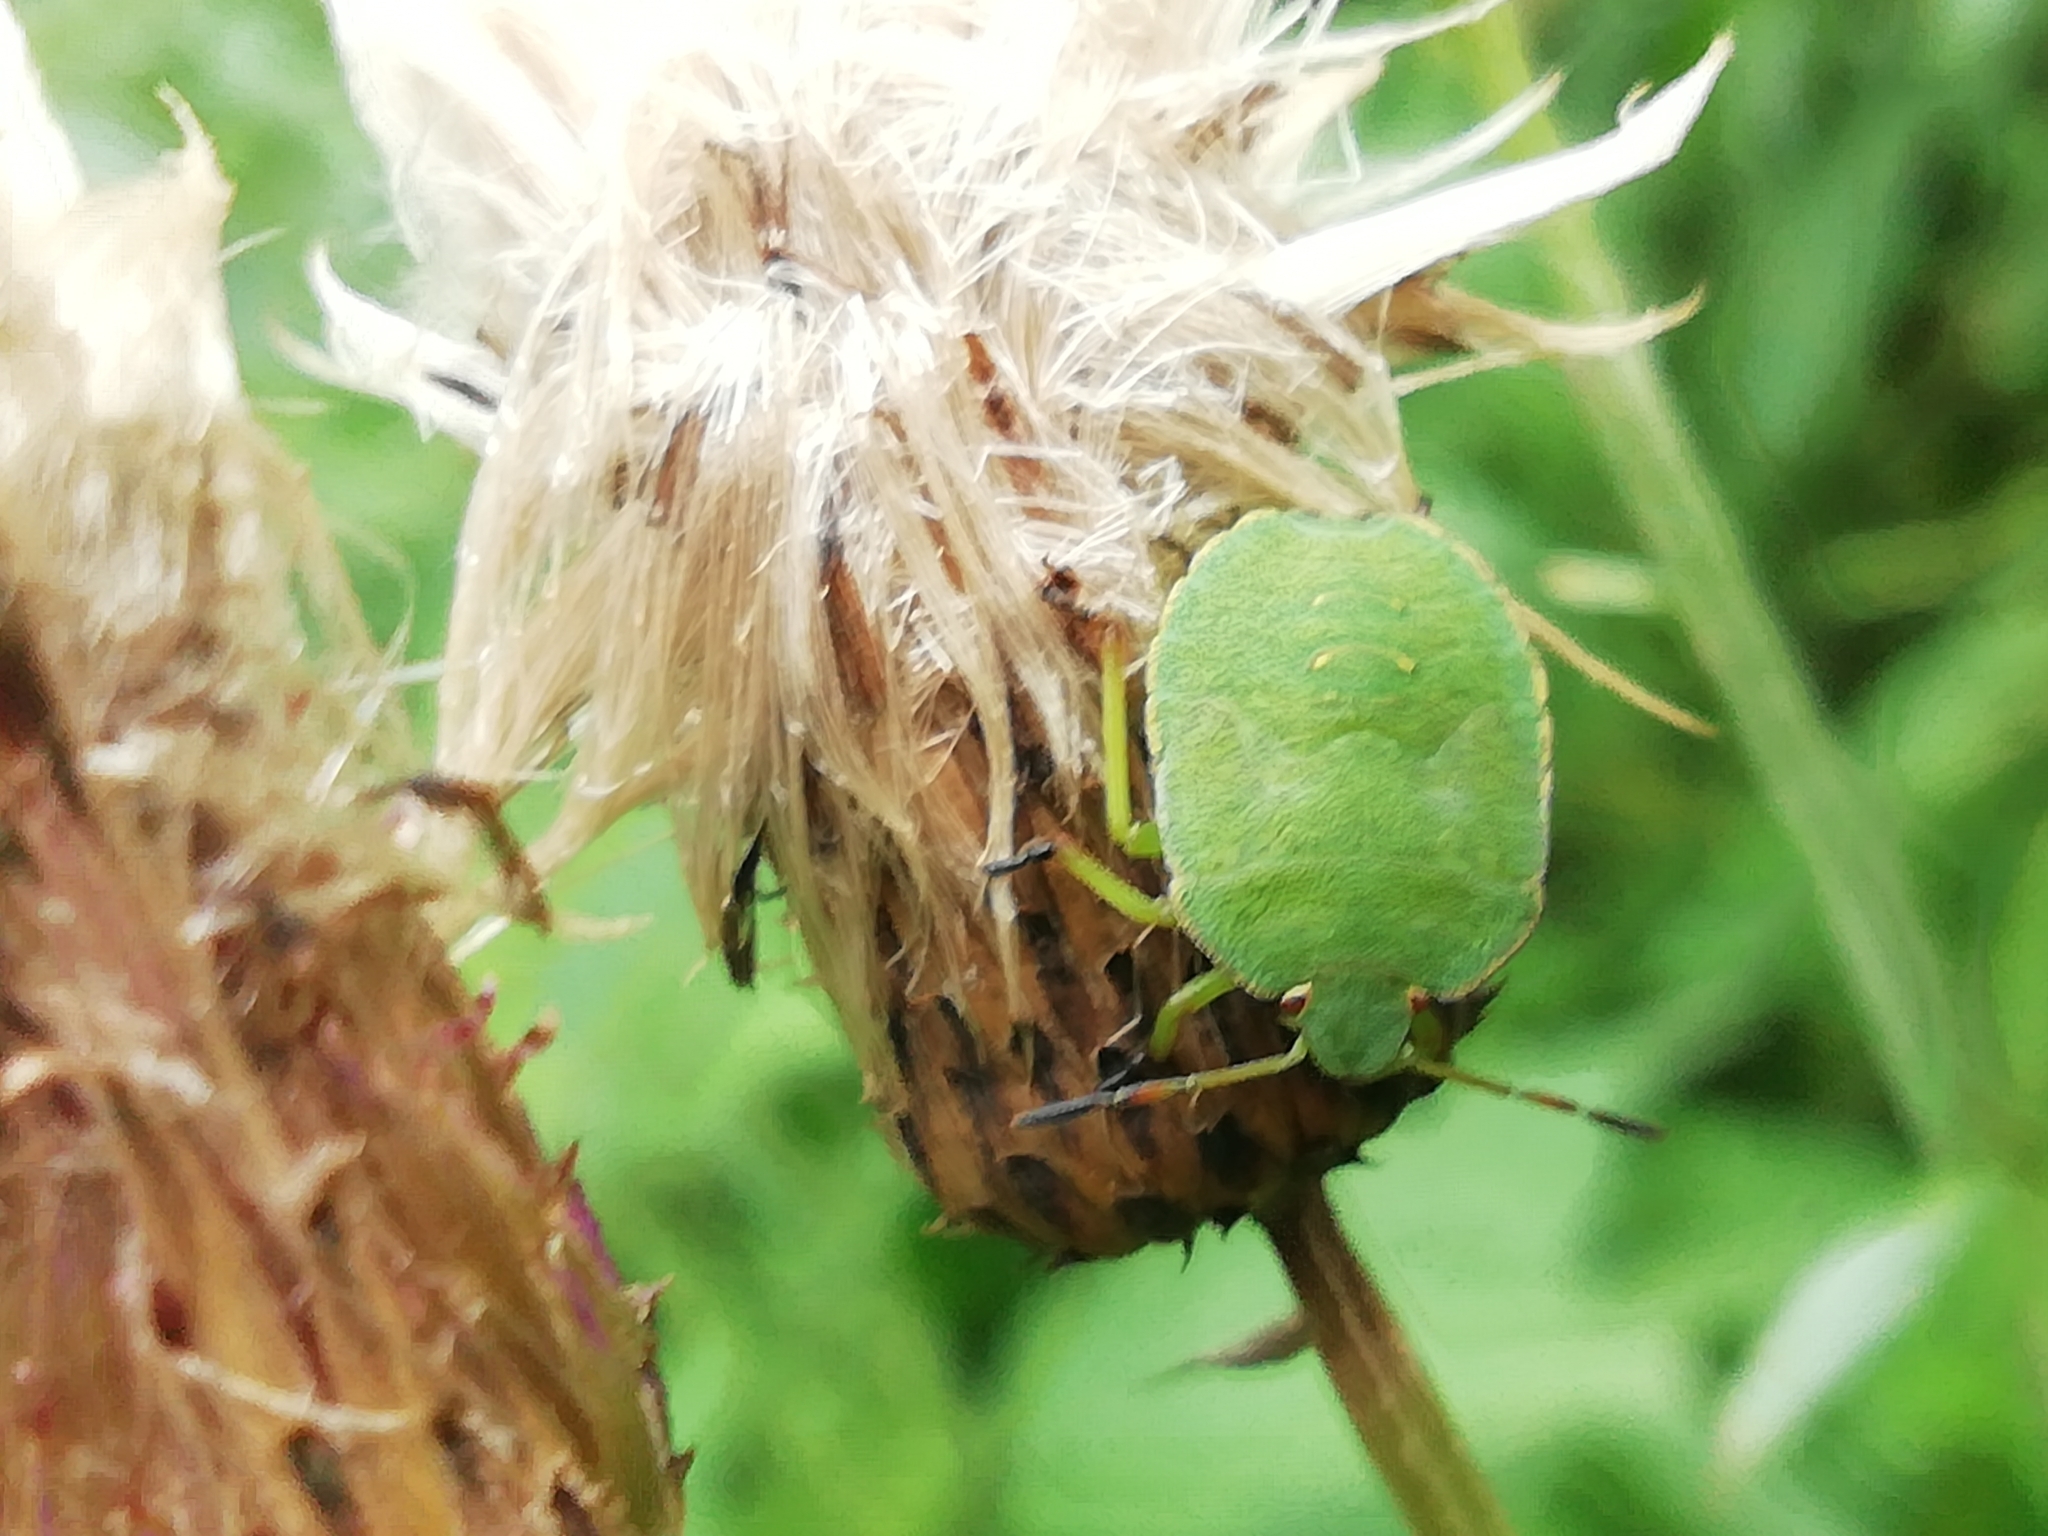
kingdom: Animalia
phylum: Arthropoda
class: Insecta
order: Hemiptera
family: Pentatomidae
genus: Palomena
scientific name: Palomena prasina
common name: Green shieldbug
